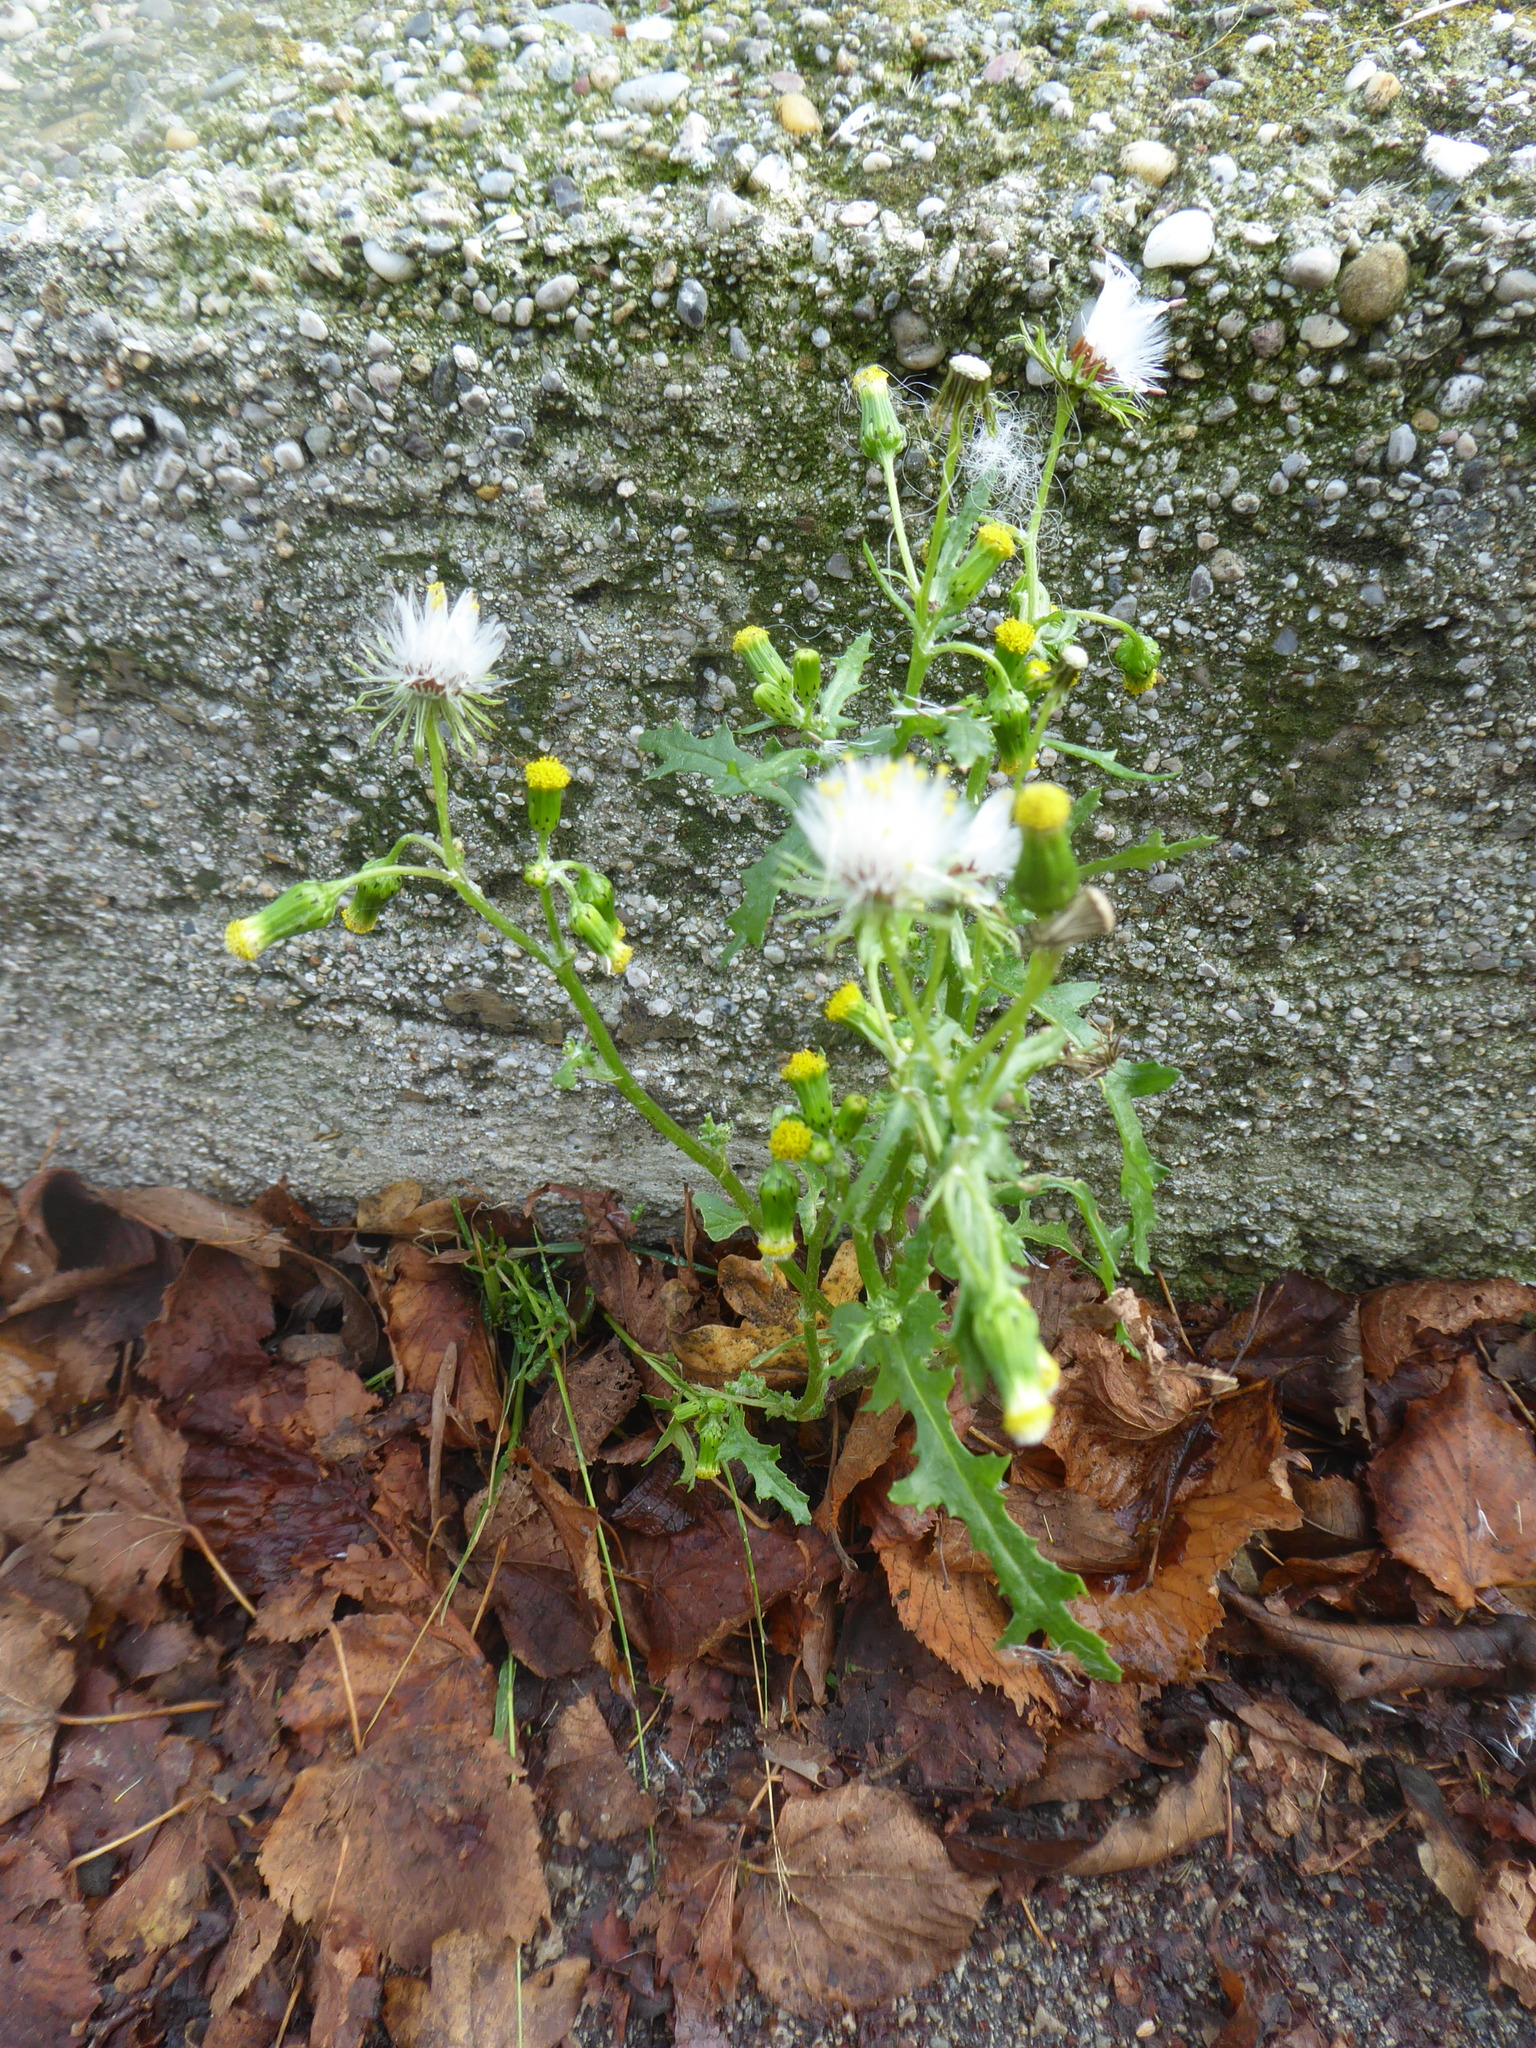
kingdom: Plantae
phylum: Tracheophyta
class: Magnoliopsida
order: Asterales
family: Asteraceae
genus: Senecio
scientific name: Senecio vulgaris
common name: Old-man-in-the-spring
